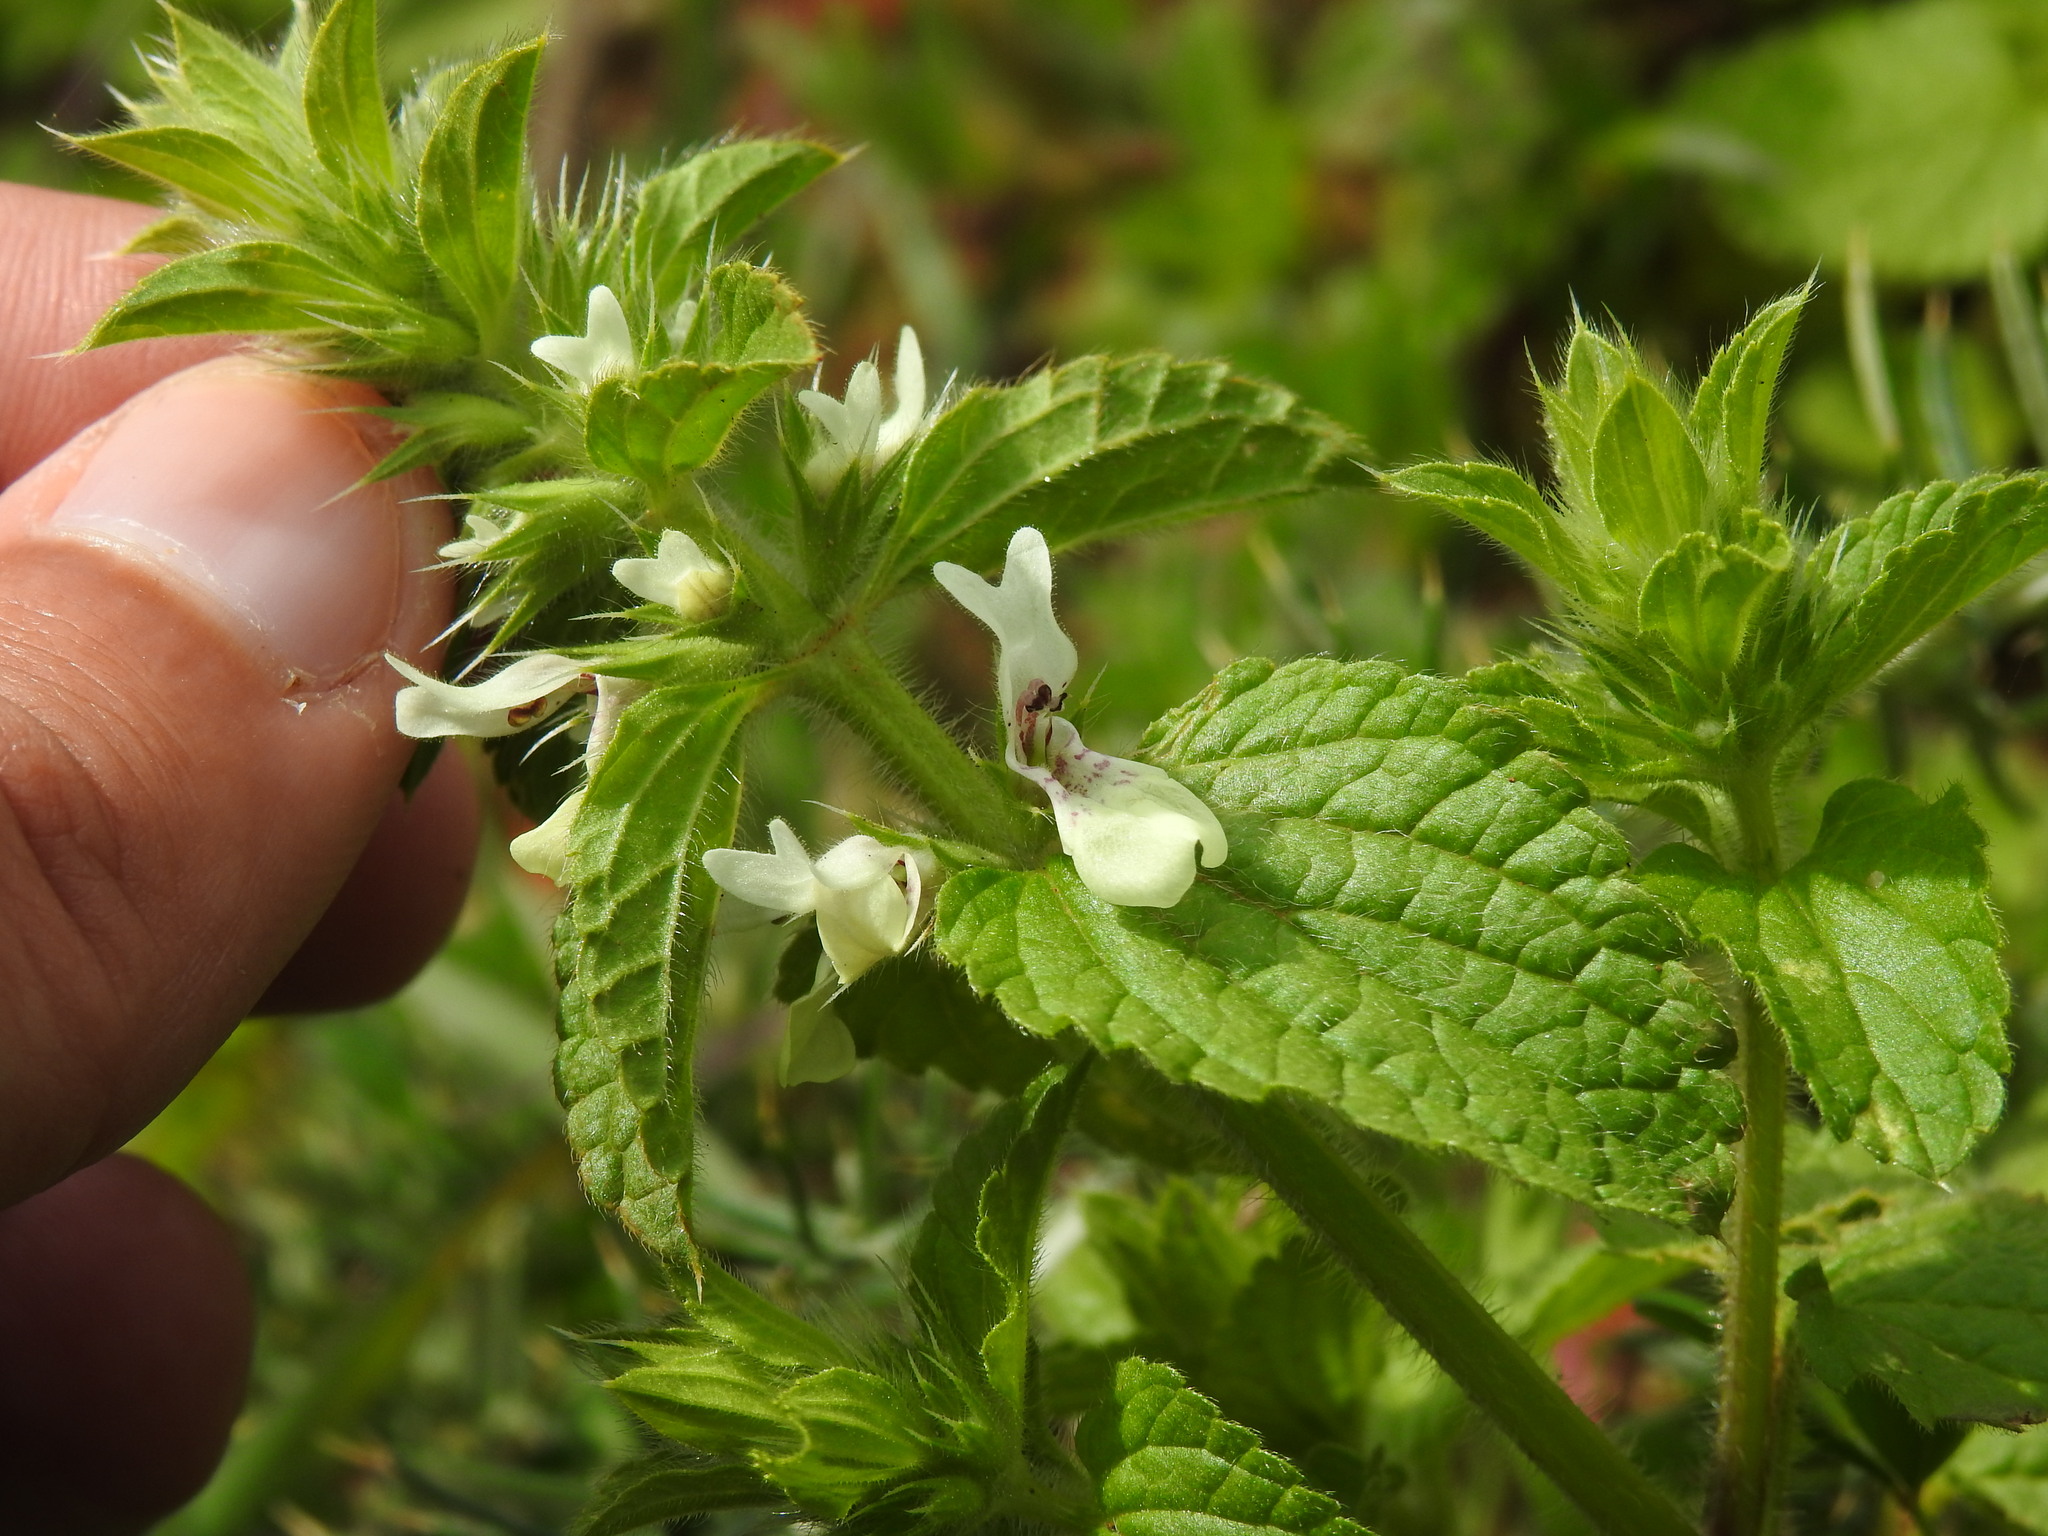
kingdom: Plantae
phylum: Tracheophyta
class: Magnoliopsida
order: Lamiales
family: Lamiaceae
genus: Stachys
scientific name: Stachys ocymastrum
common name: Italian hedgenettle
